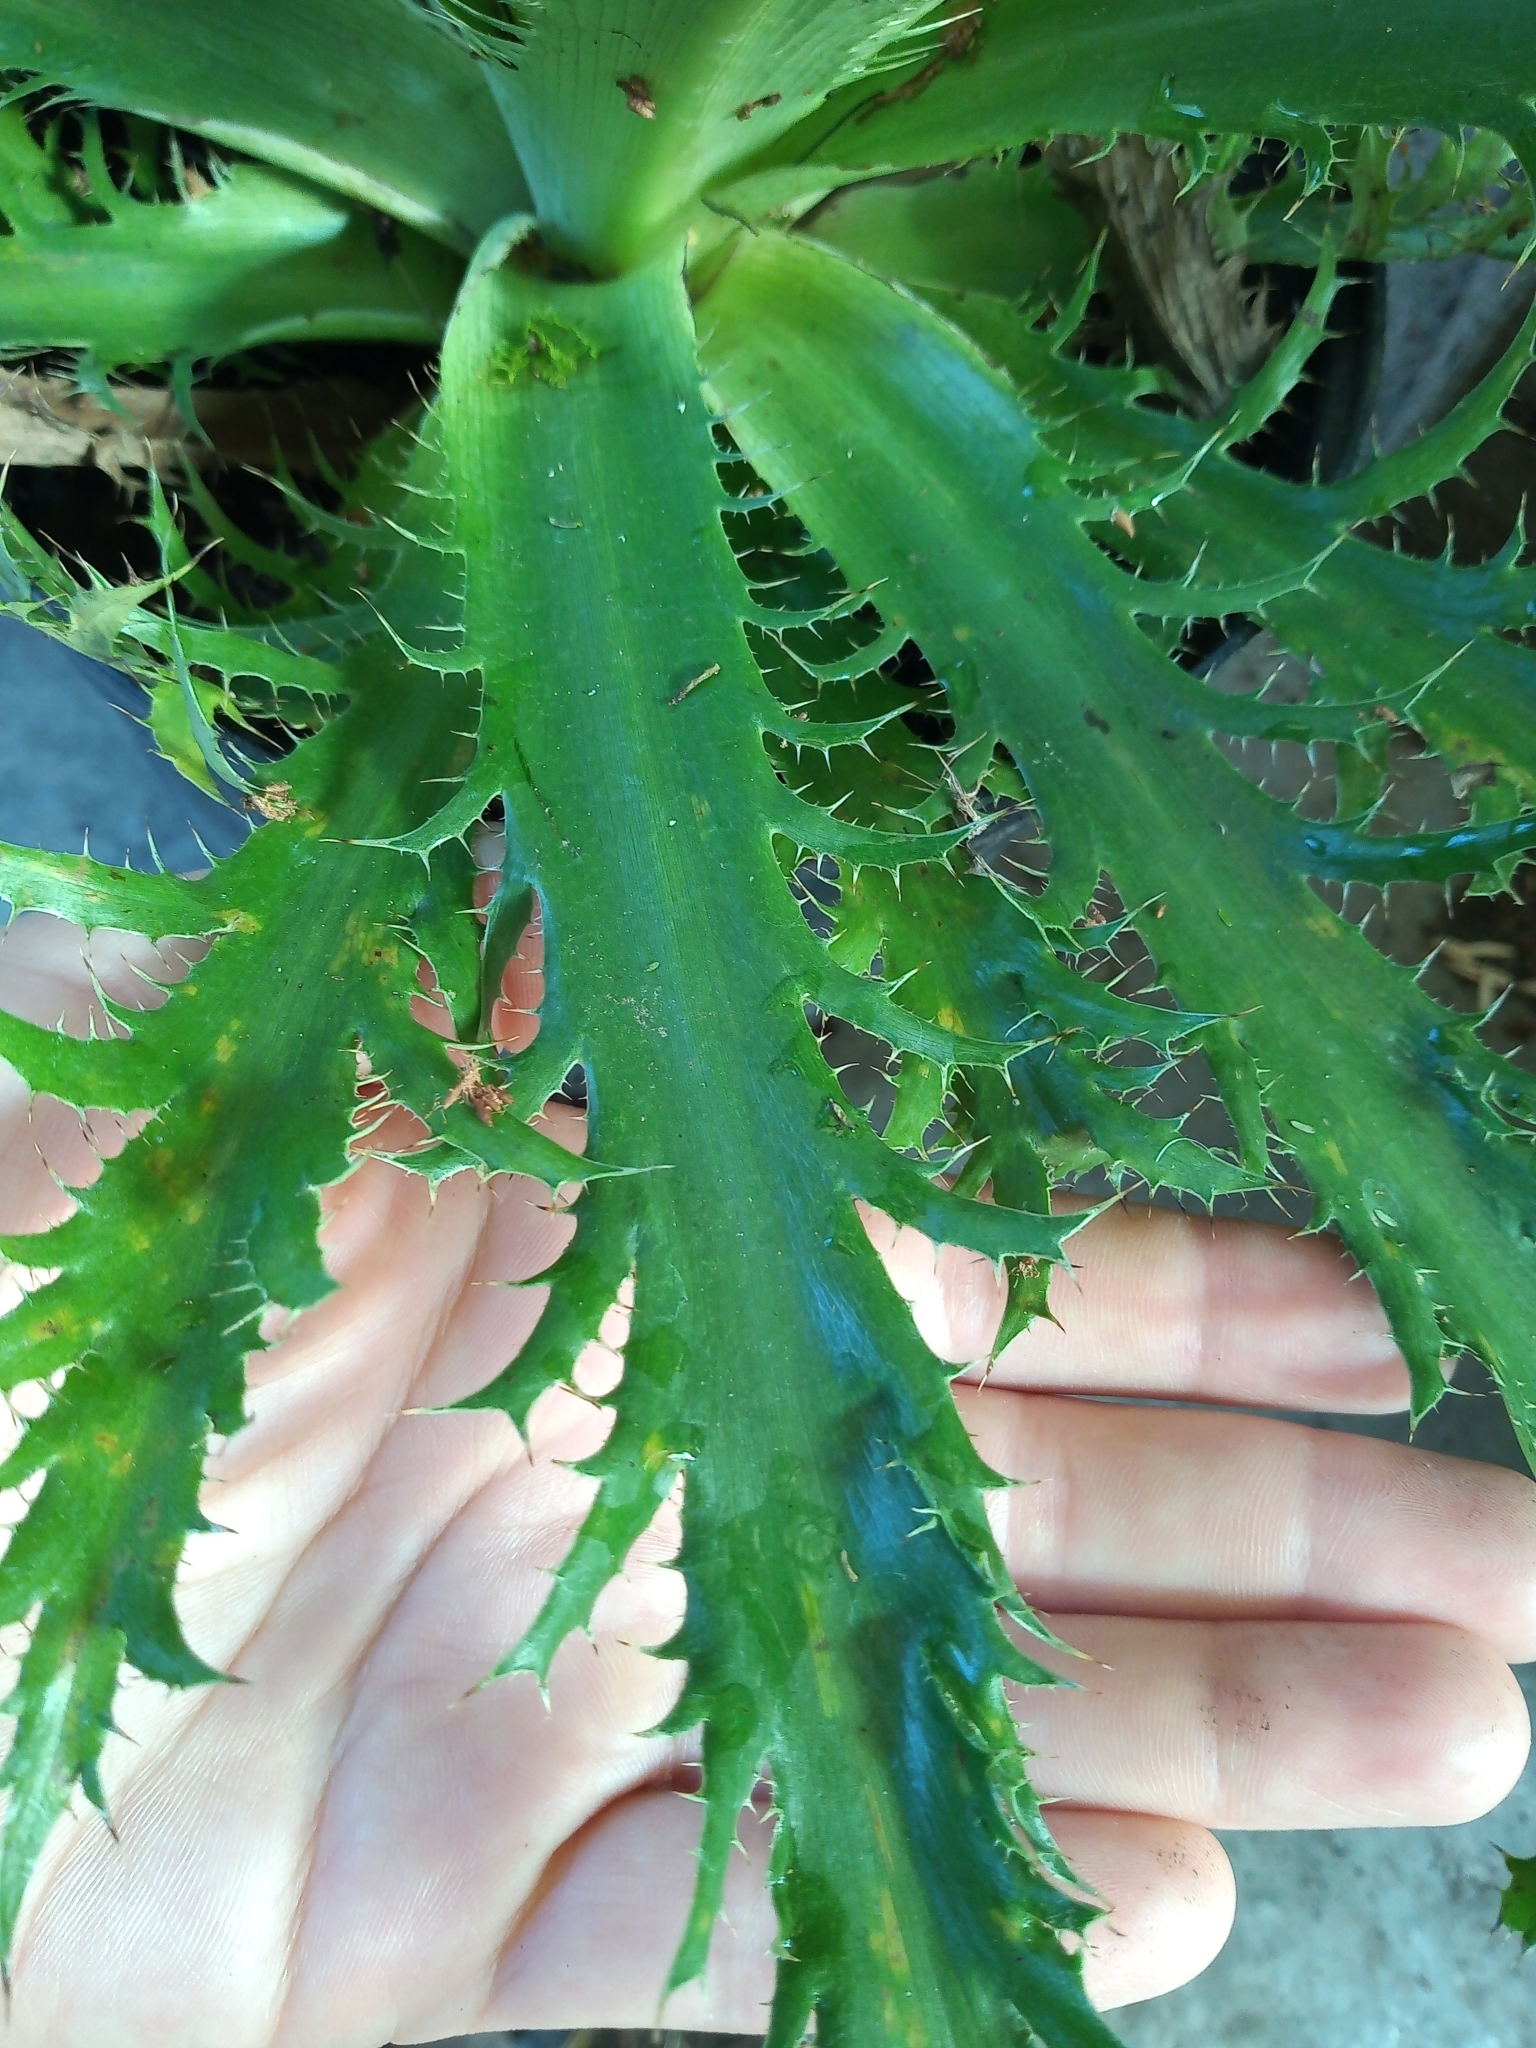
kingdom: Plantae
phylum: Tracheophyta
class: Magnoliopsida
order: Apiales
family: Apiaceae
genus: Eryngium
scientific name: Eryngium serra
